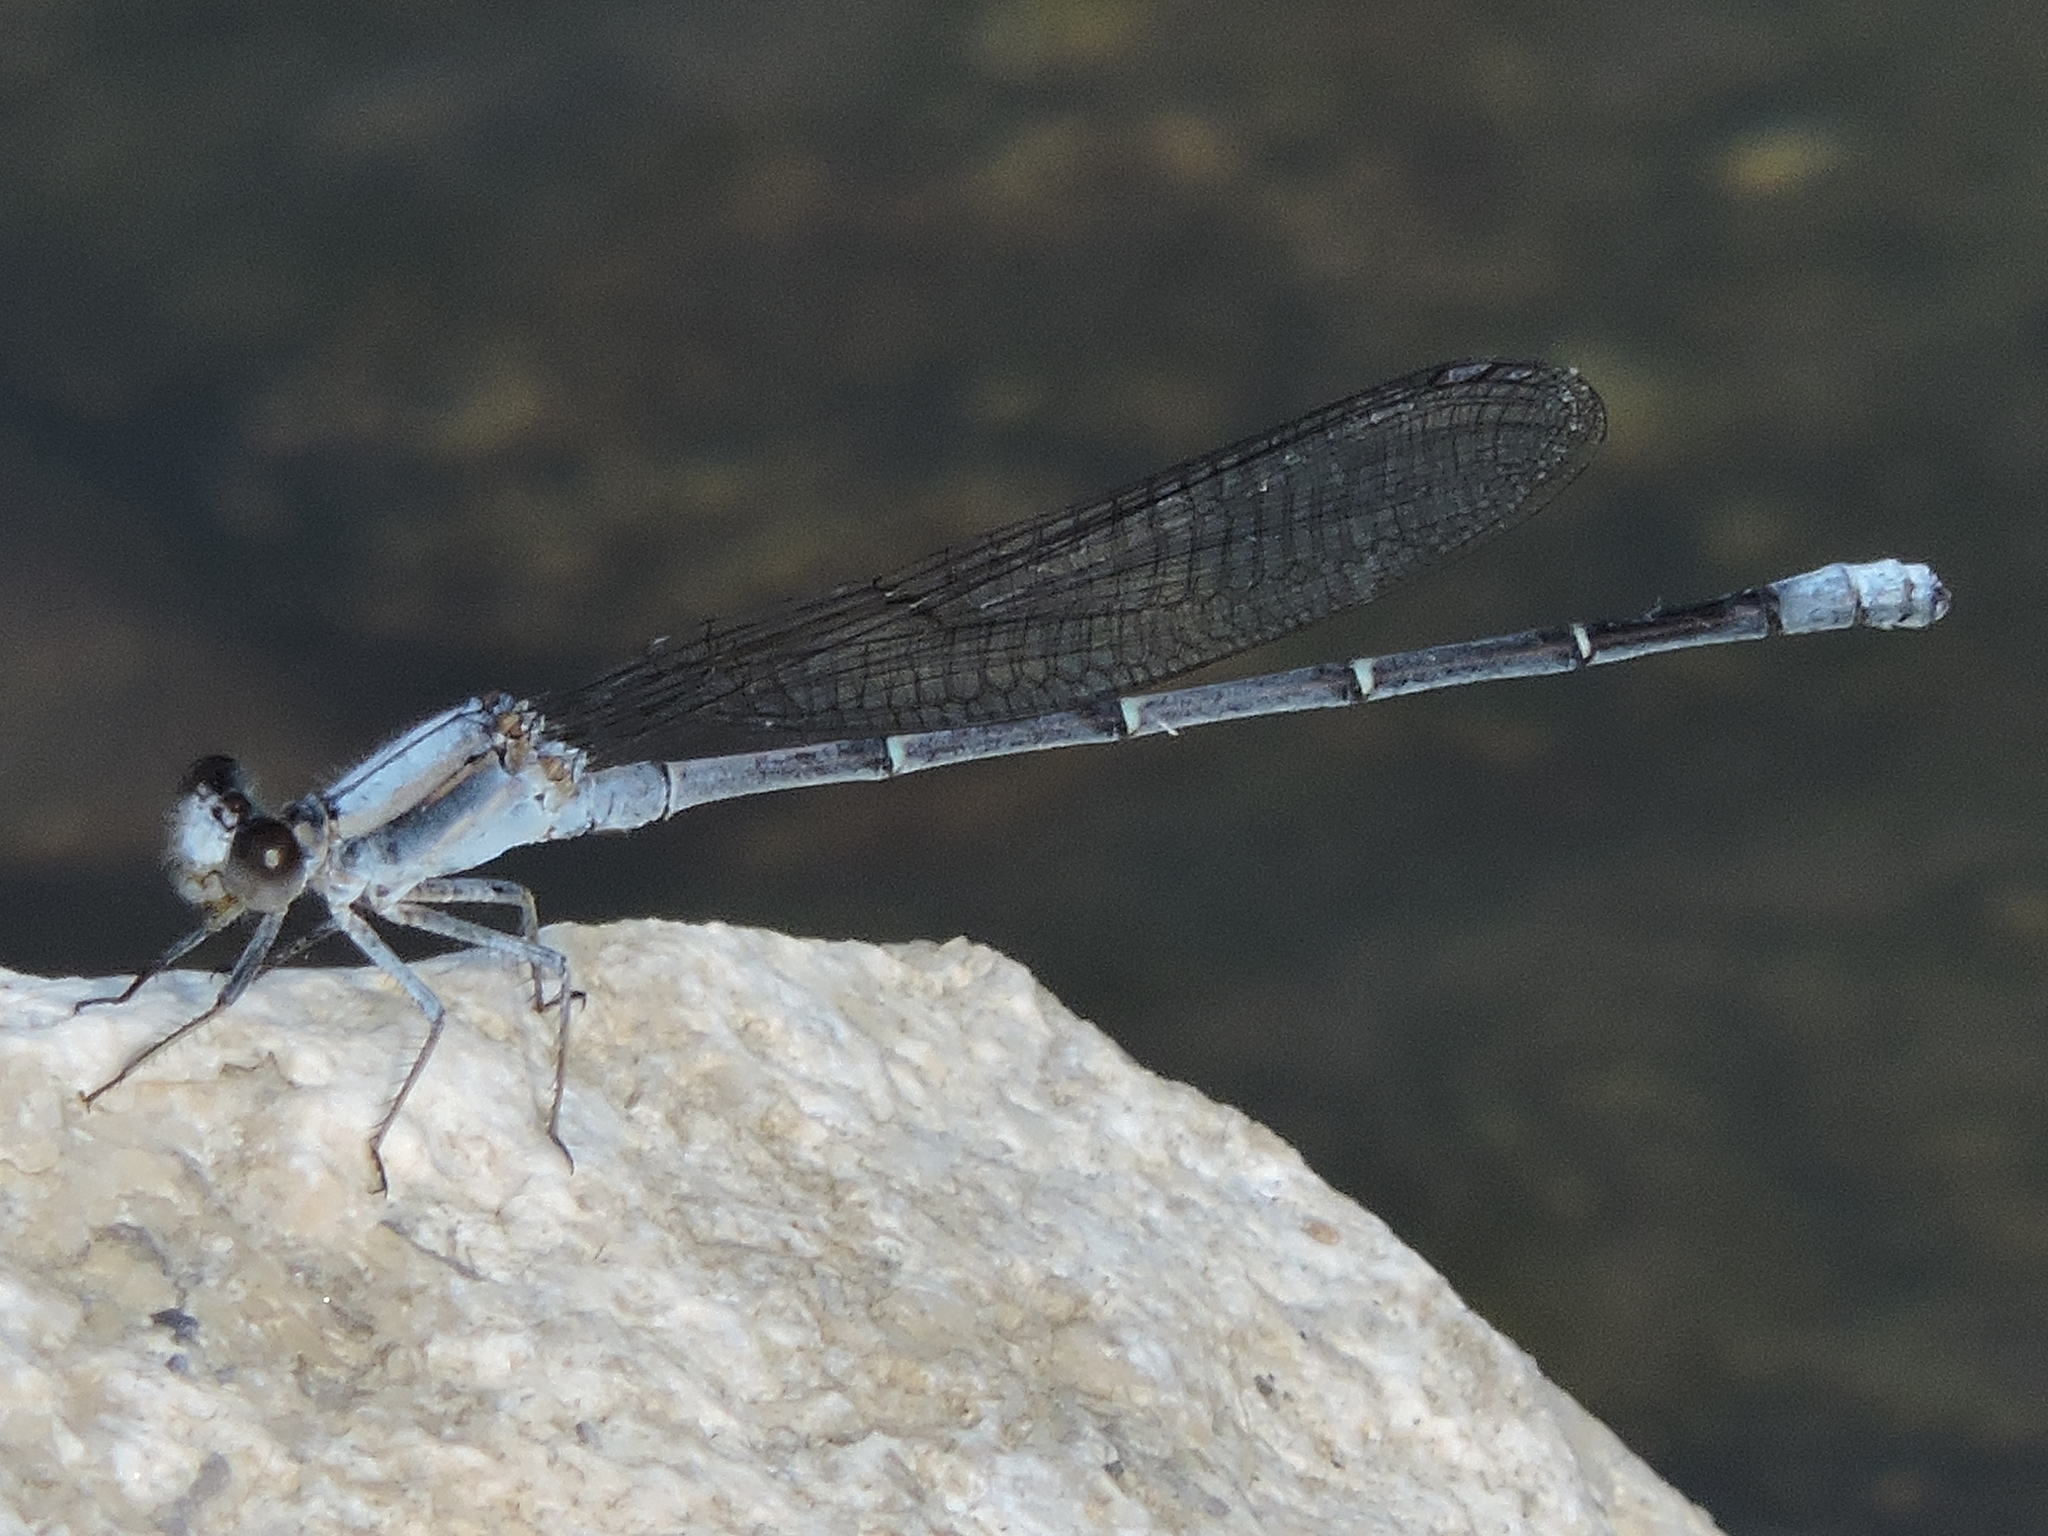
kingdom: Animalia
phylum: Arthropoda
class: Insecta
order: Odonata
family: Coenagrionidae
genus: Argia
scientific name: Argia moesta
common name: Powdered dancer
